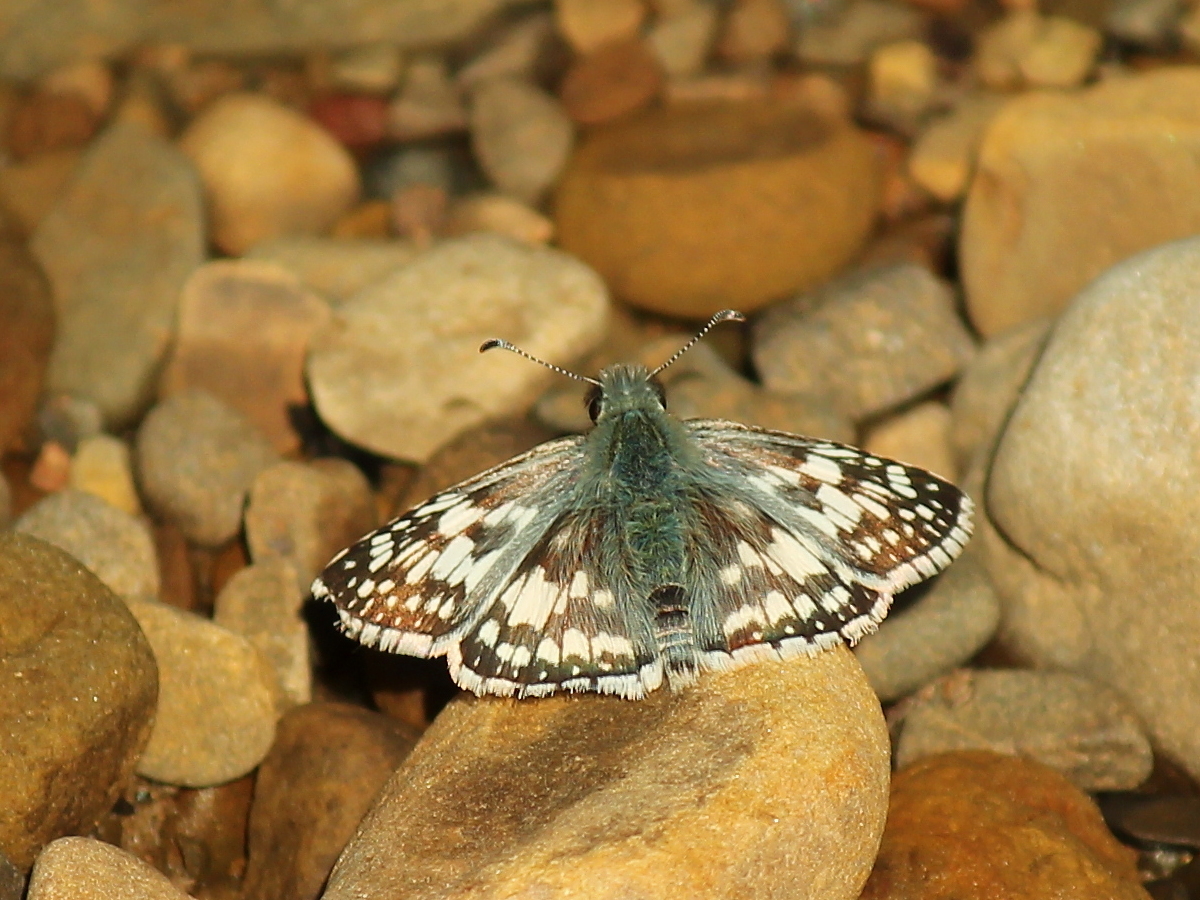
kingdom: Animalia
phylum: Arthropoda
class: Insecta
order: Lepidoptera
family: Hesperiidae
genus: Burnsius
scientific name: Burnsius communis
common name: Common checkered-skipper
